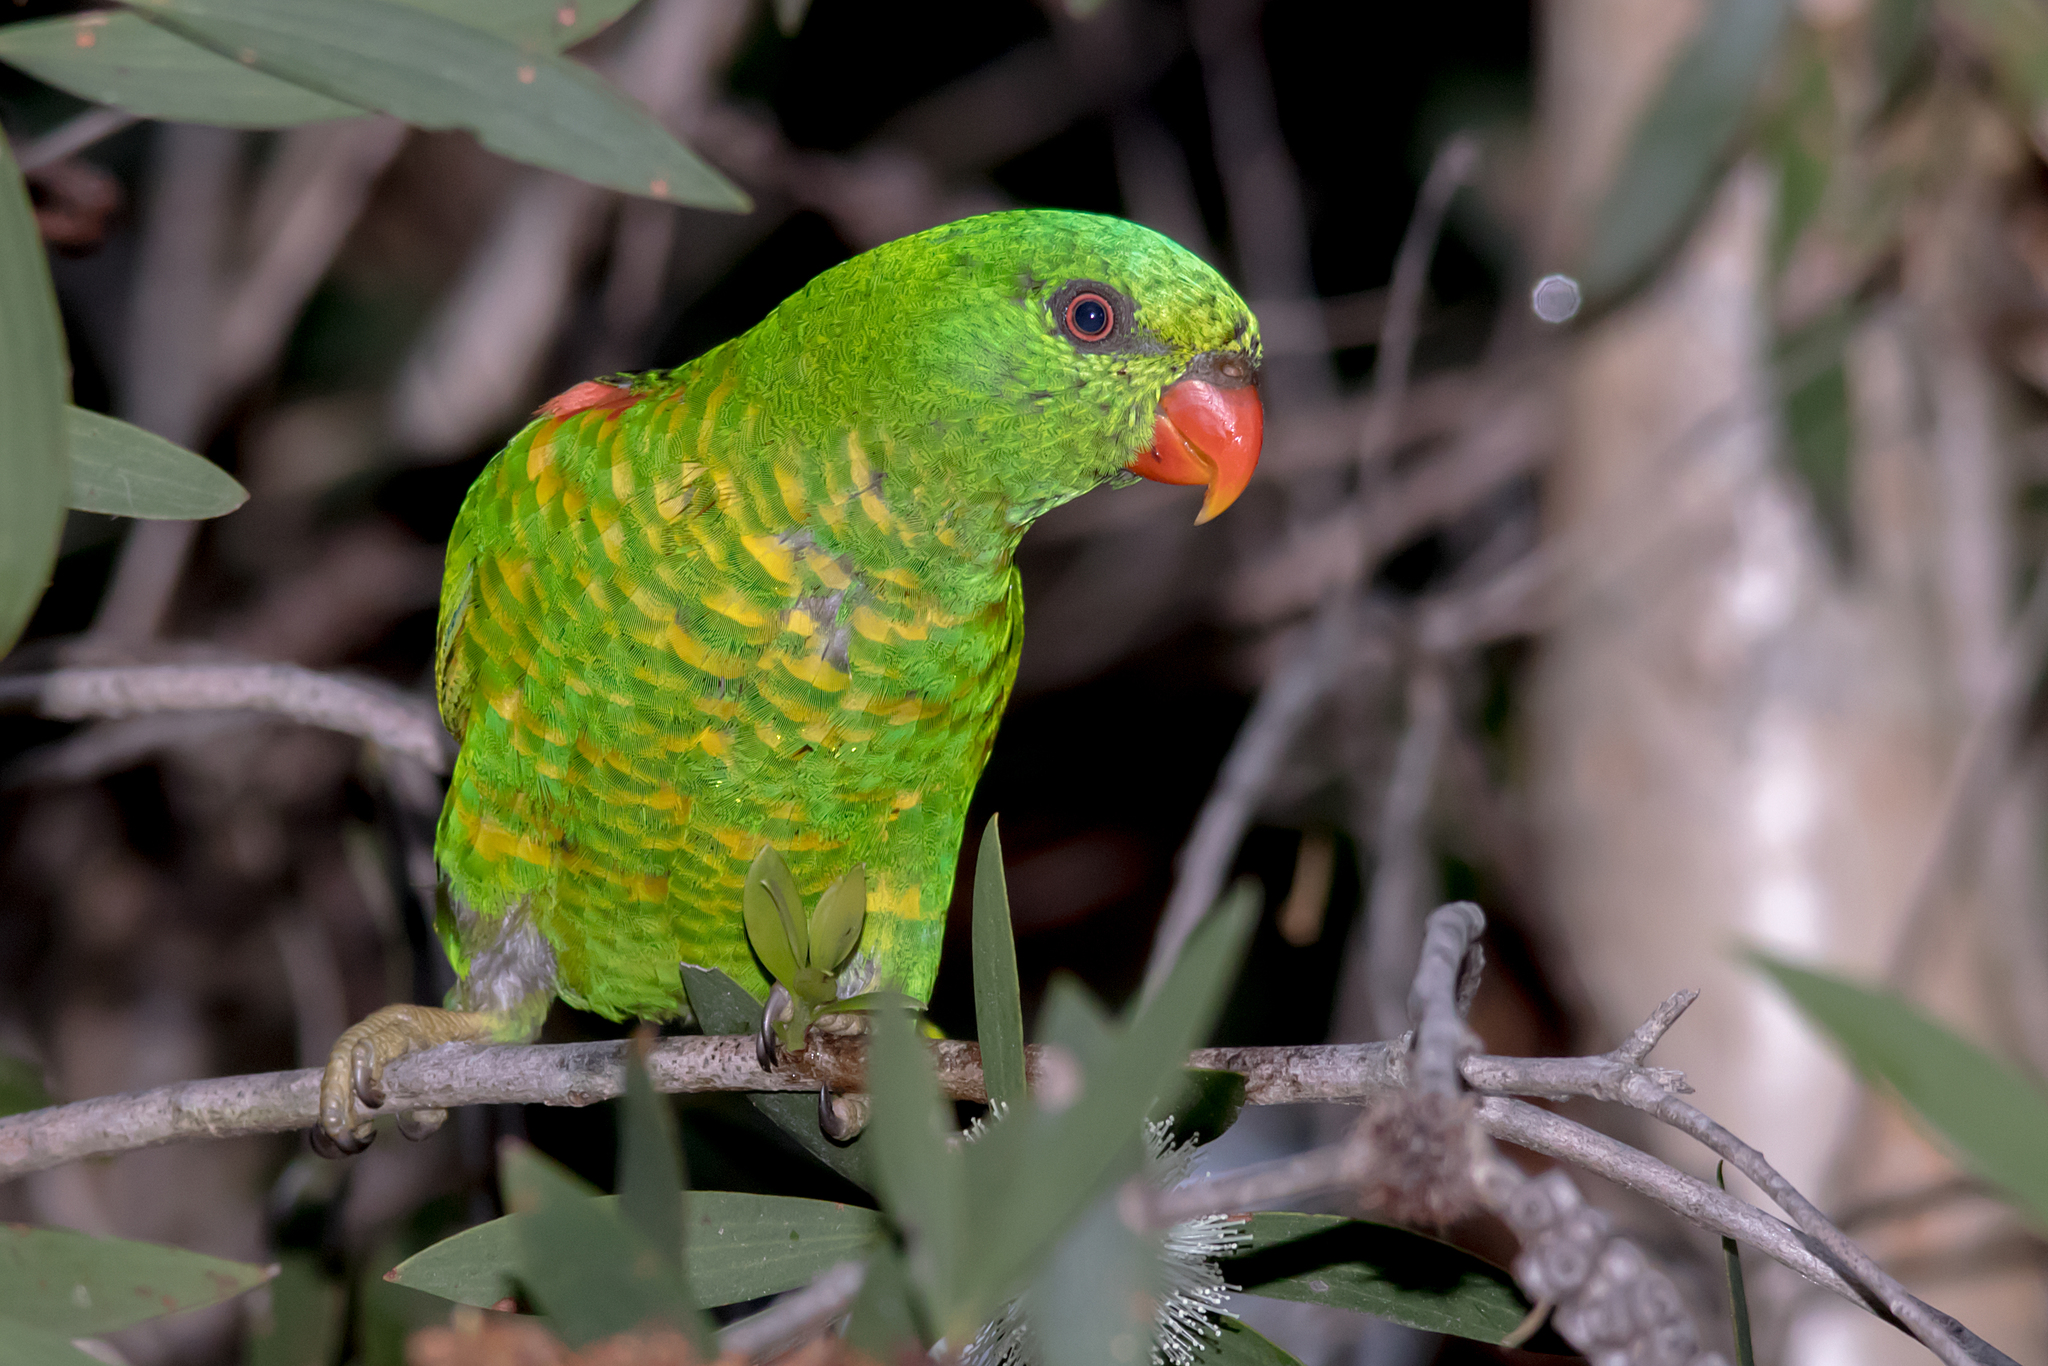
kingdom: Animalia
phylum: Chordata
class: Aves
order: Psittaciformes
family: Psittacidae
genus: Trichoglossus
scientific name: Trichoglossus chlorolepidotus
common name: Scaly-breasted lorikeet
